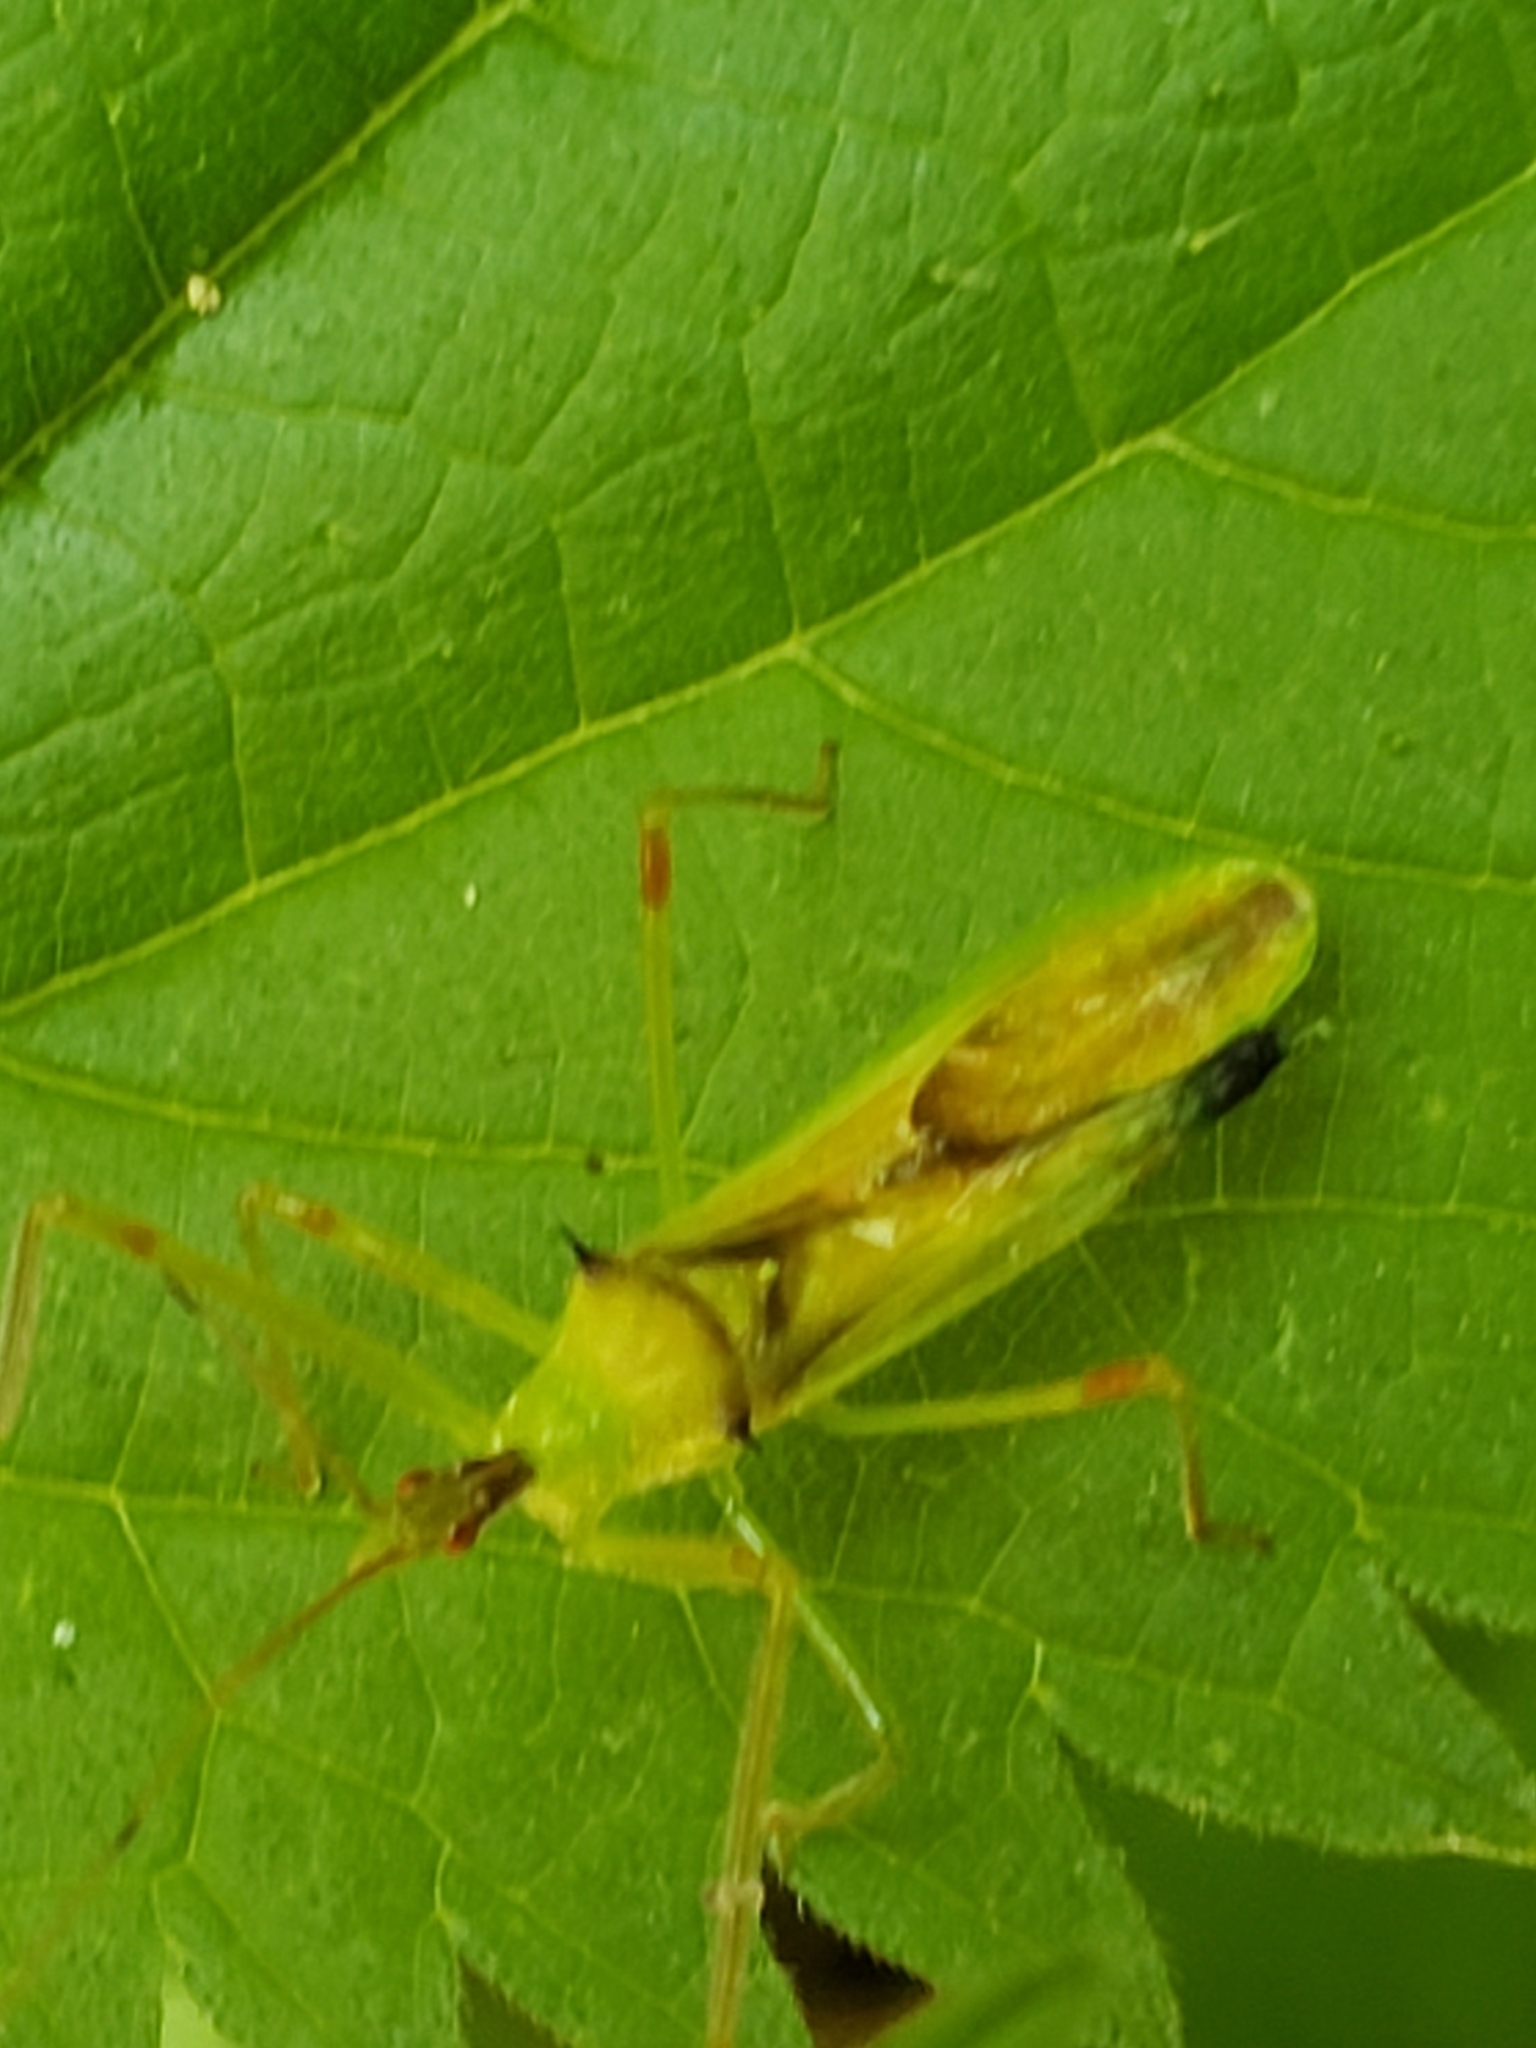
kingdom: Animalia
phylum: Arthropoda
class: Insecta
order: Hemiptera
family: Reduviidae
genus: Zelus
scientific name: Zelus luridus
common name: Pale green assassin bug
